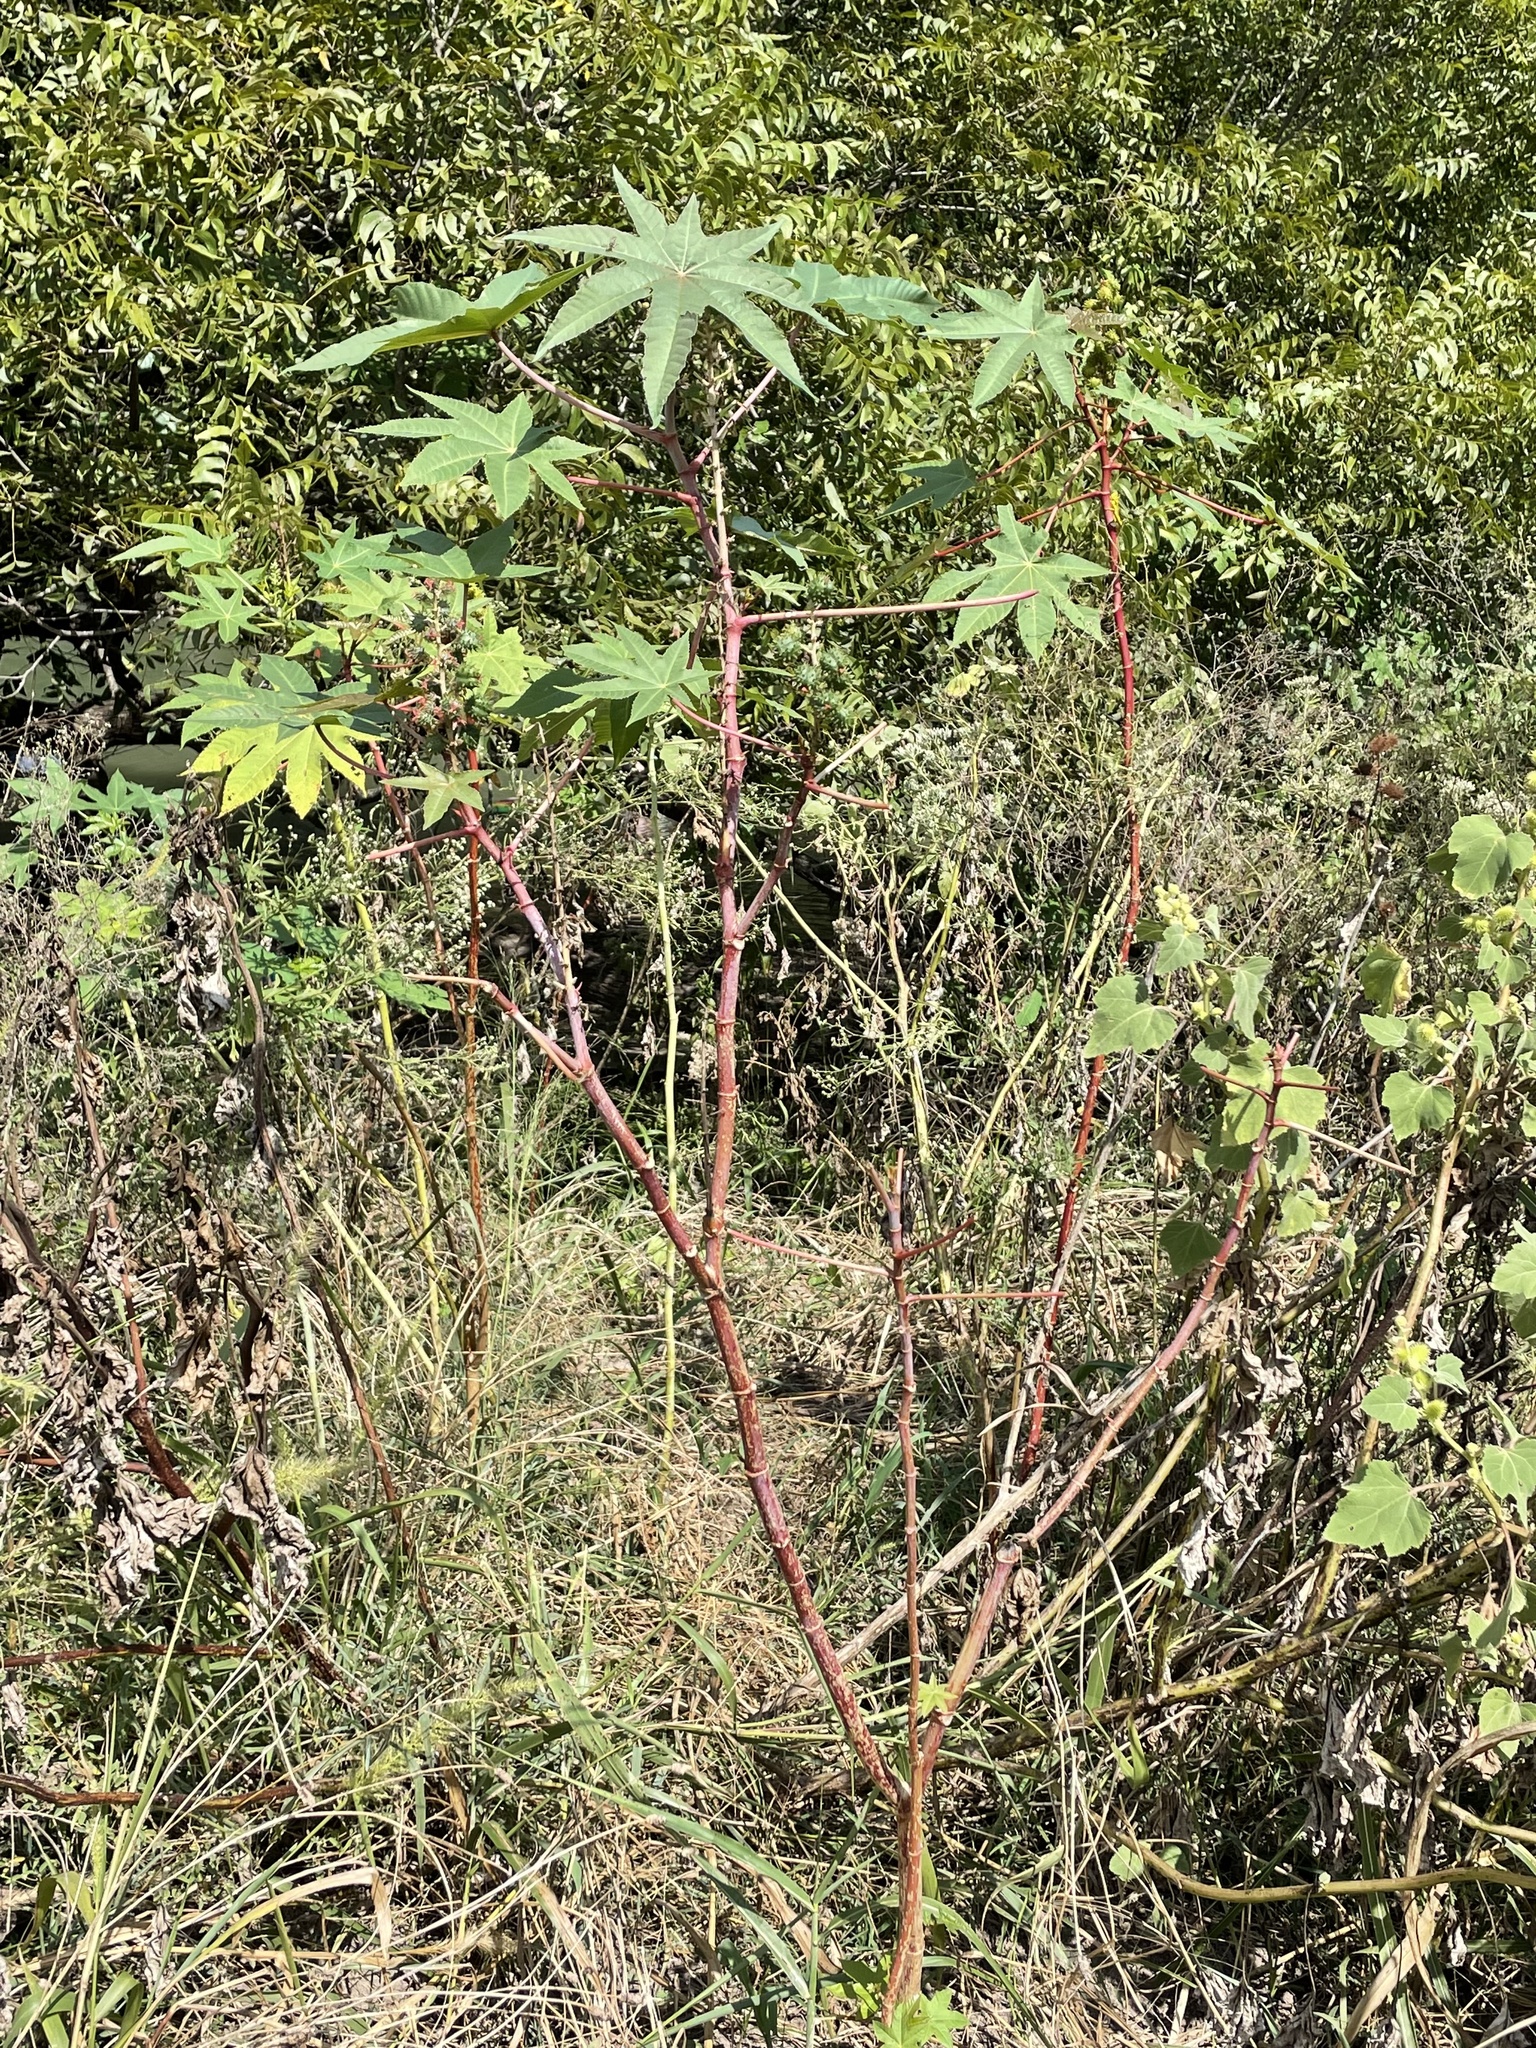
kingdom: Plantae
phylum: Tracheophyta
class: Magnoliopsida
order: Malpighiales
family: Euphorbiaceae
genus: Ricinus
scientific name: Ricinus communis
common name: Castor-oil-plant
